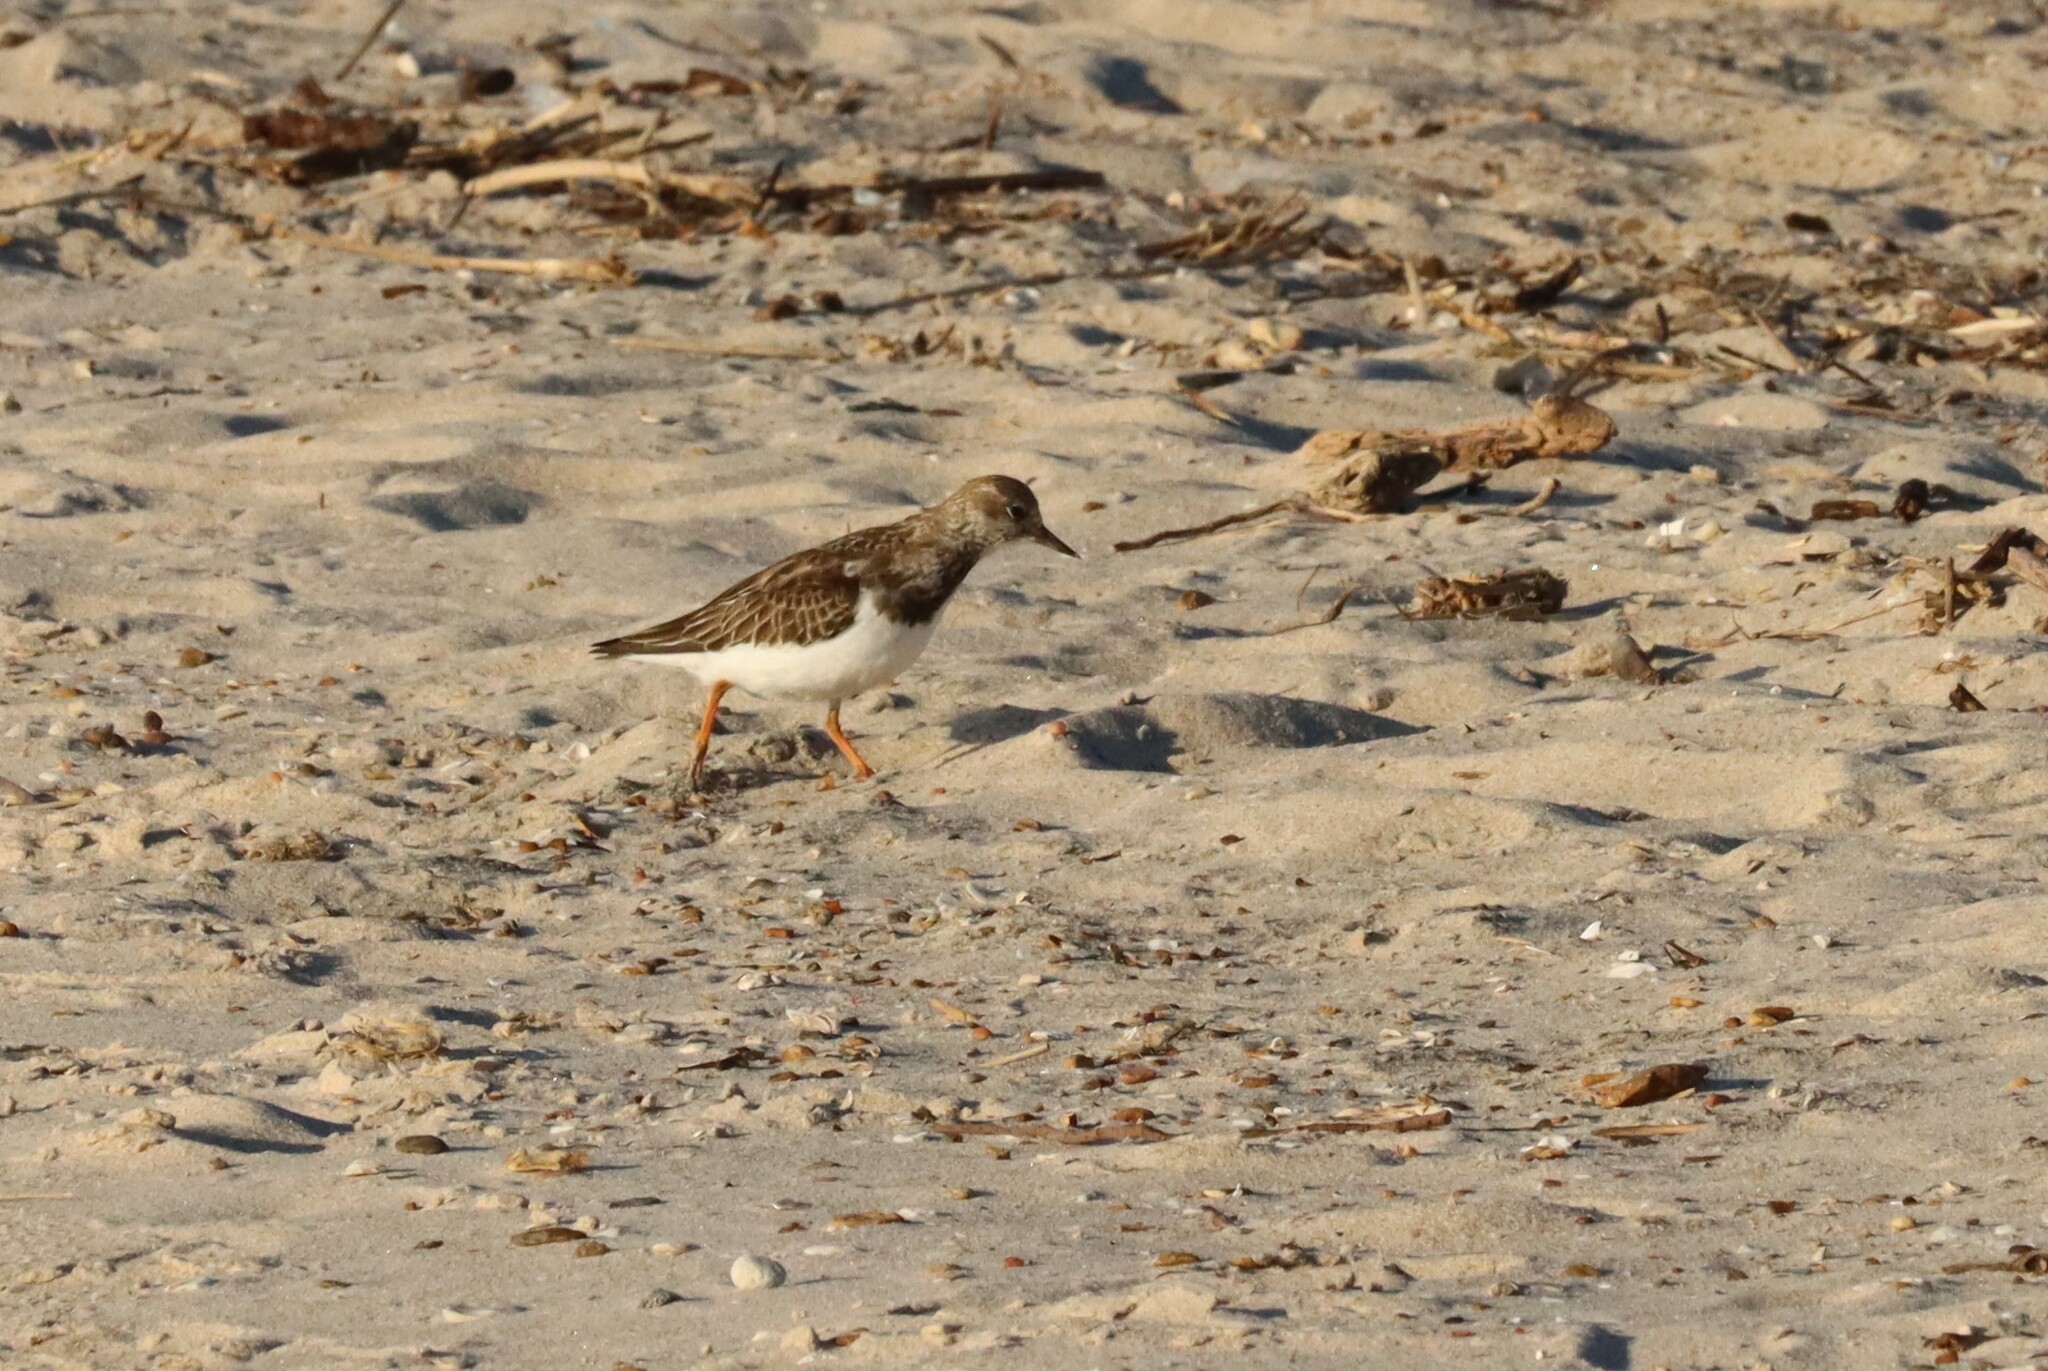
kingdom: Animalia
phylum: Chordata
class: Aves
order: Charadriiformes
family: Scolopacidae
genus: Arenaria
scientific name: Arenaria interpres
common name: Ruddy turnstone
